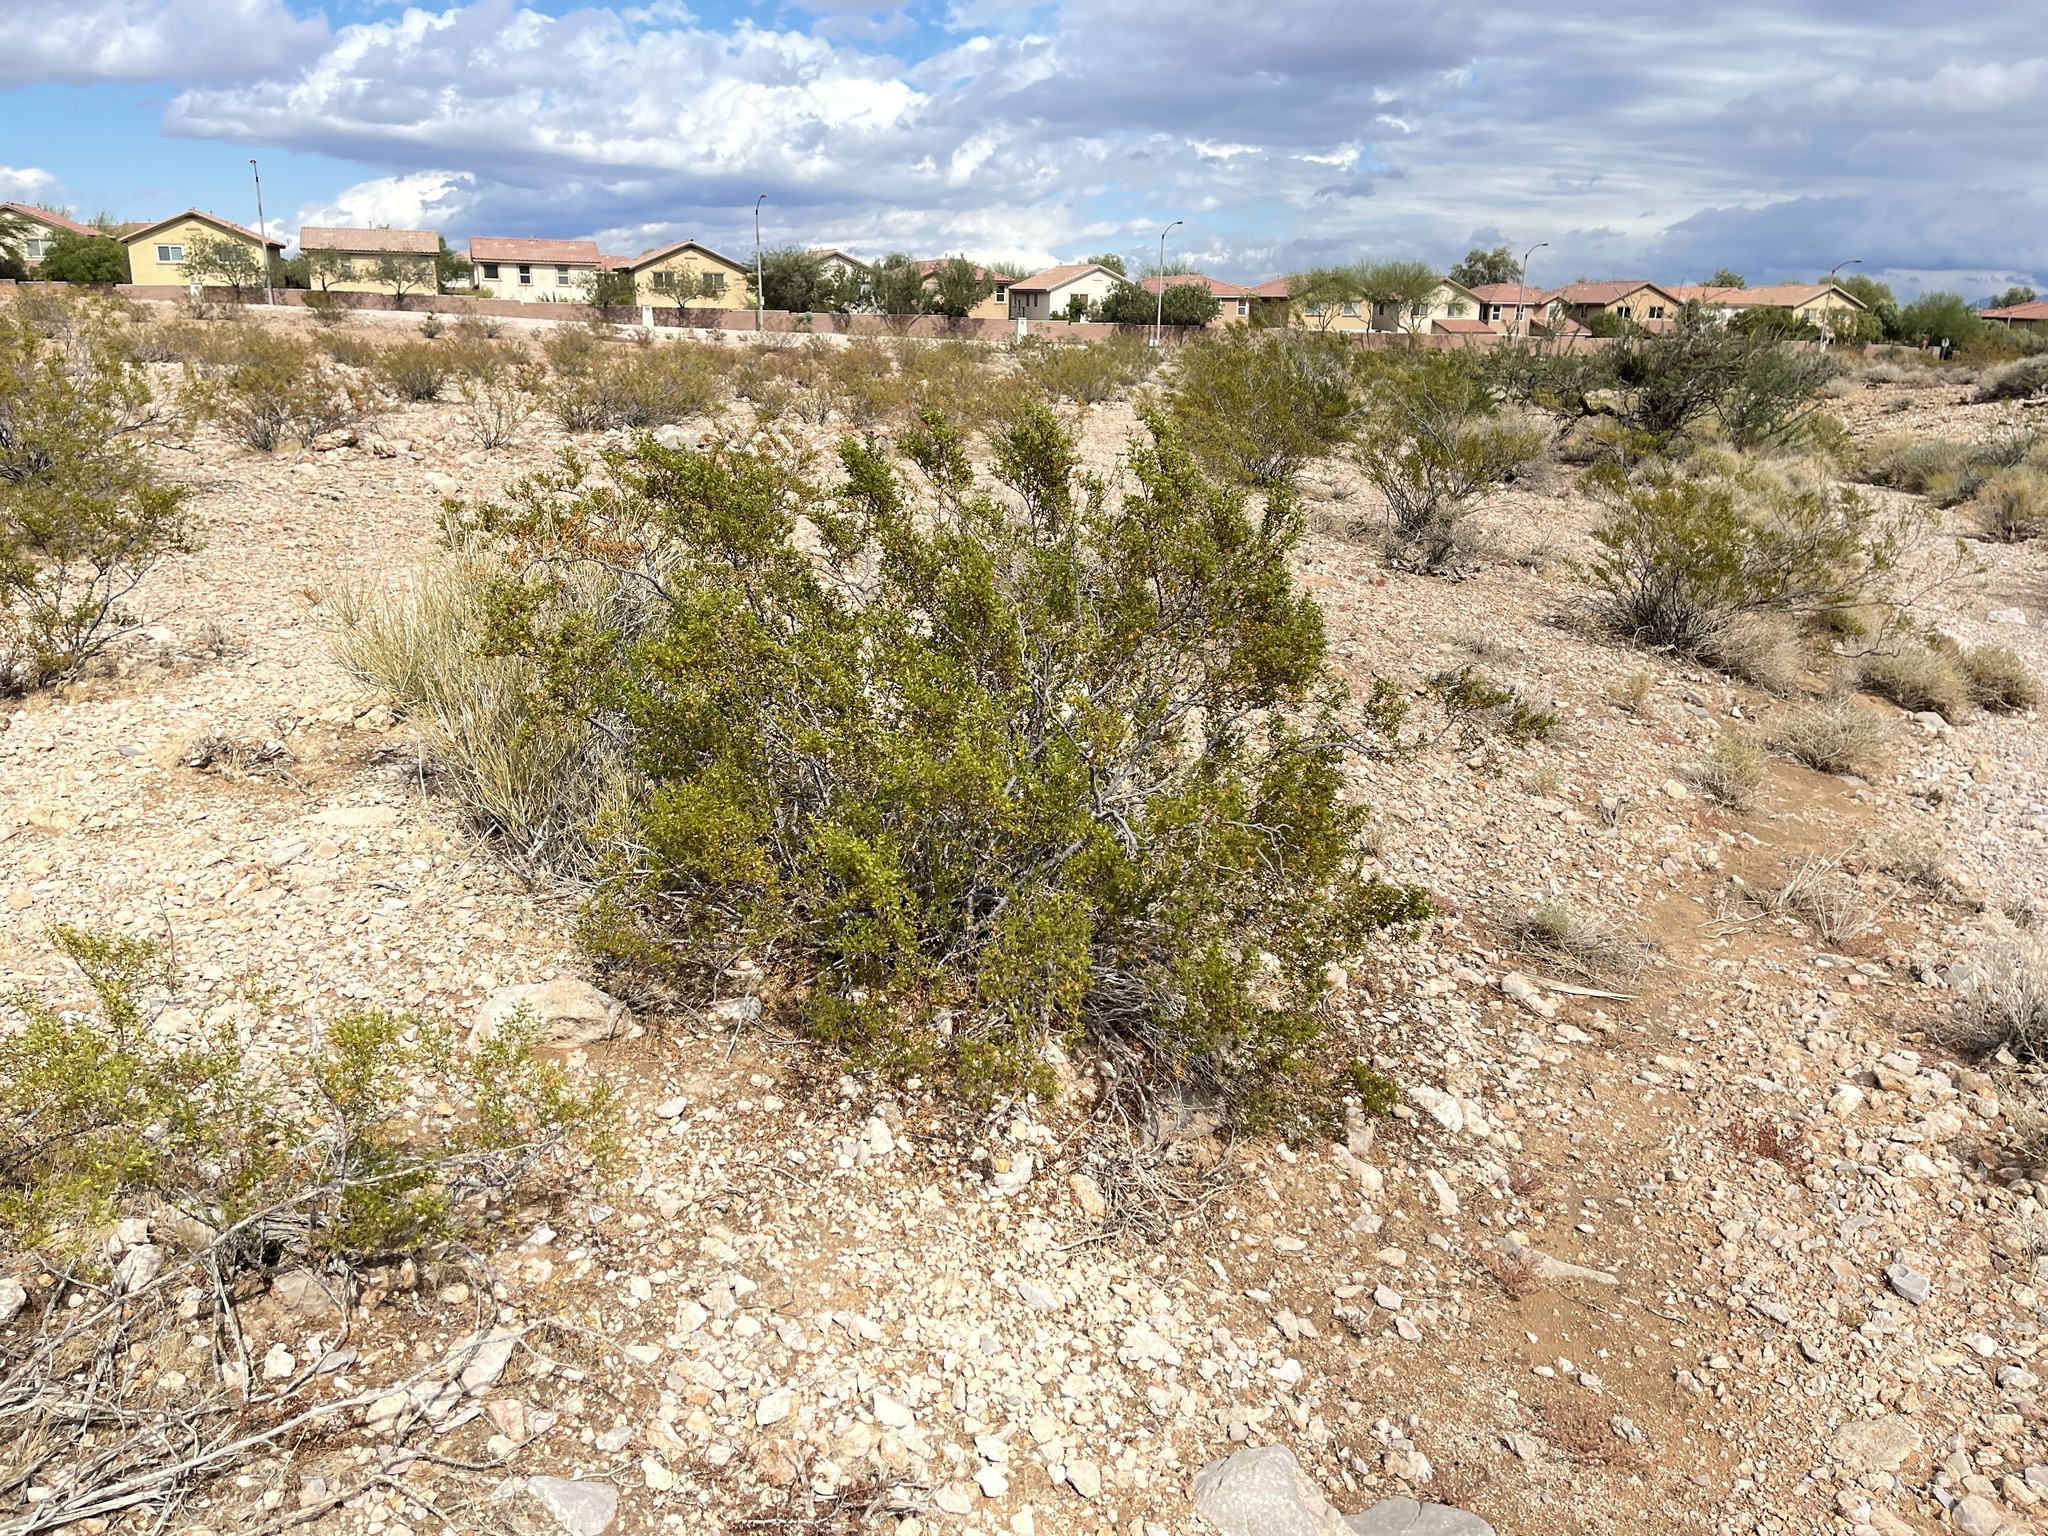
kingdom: Plantae
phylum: Tracheophyta
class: Magnoliopsida
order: Zygophyllales
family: Zygophyllaceae
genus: Larrea
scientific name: Larrea tridentata
